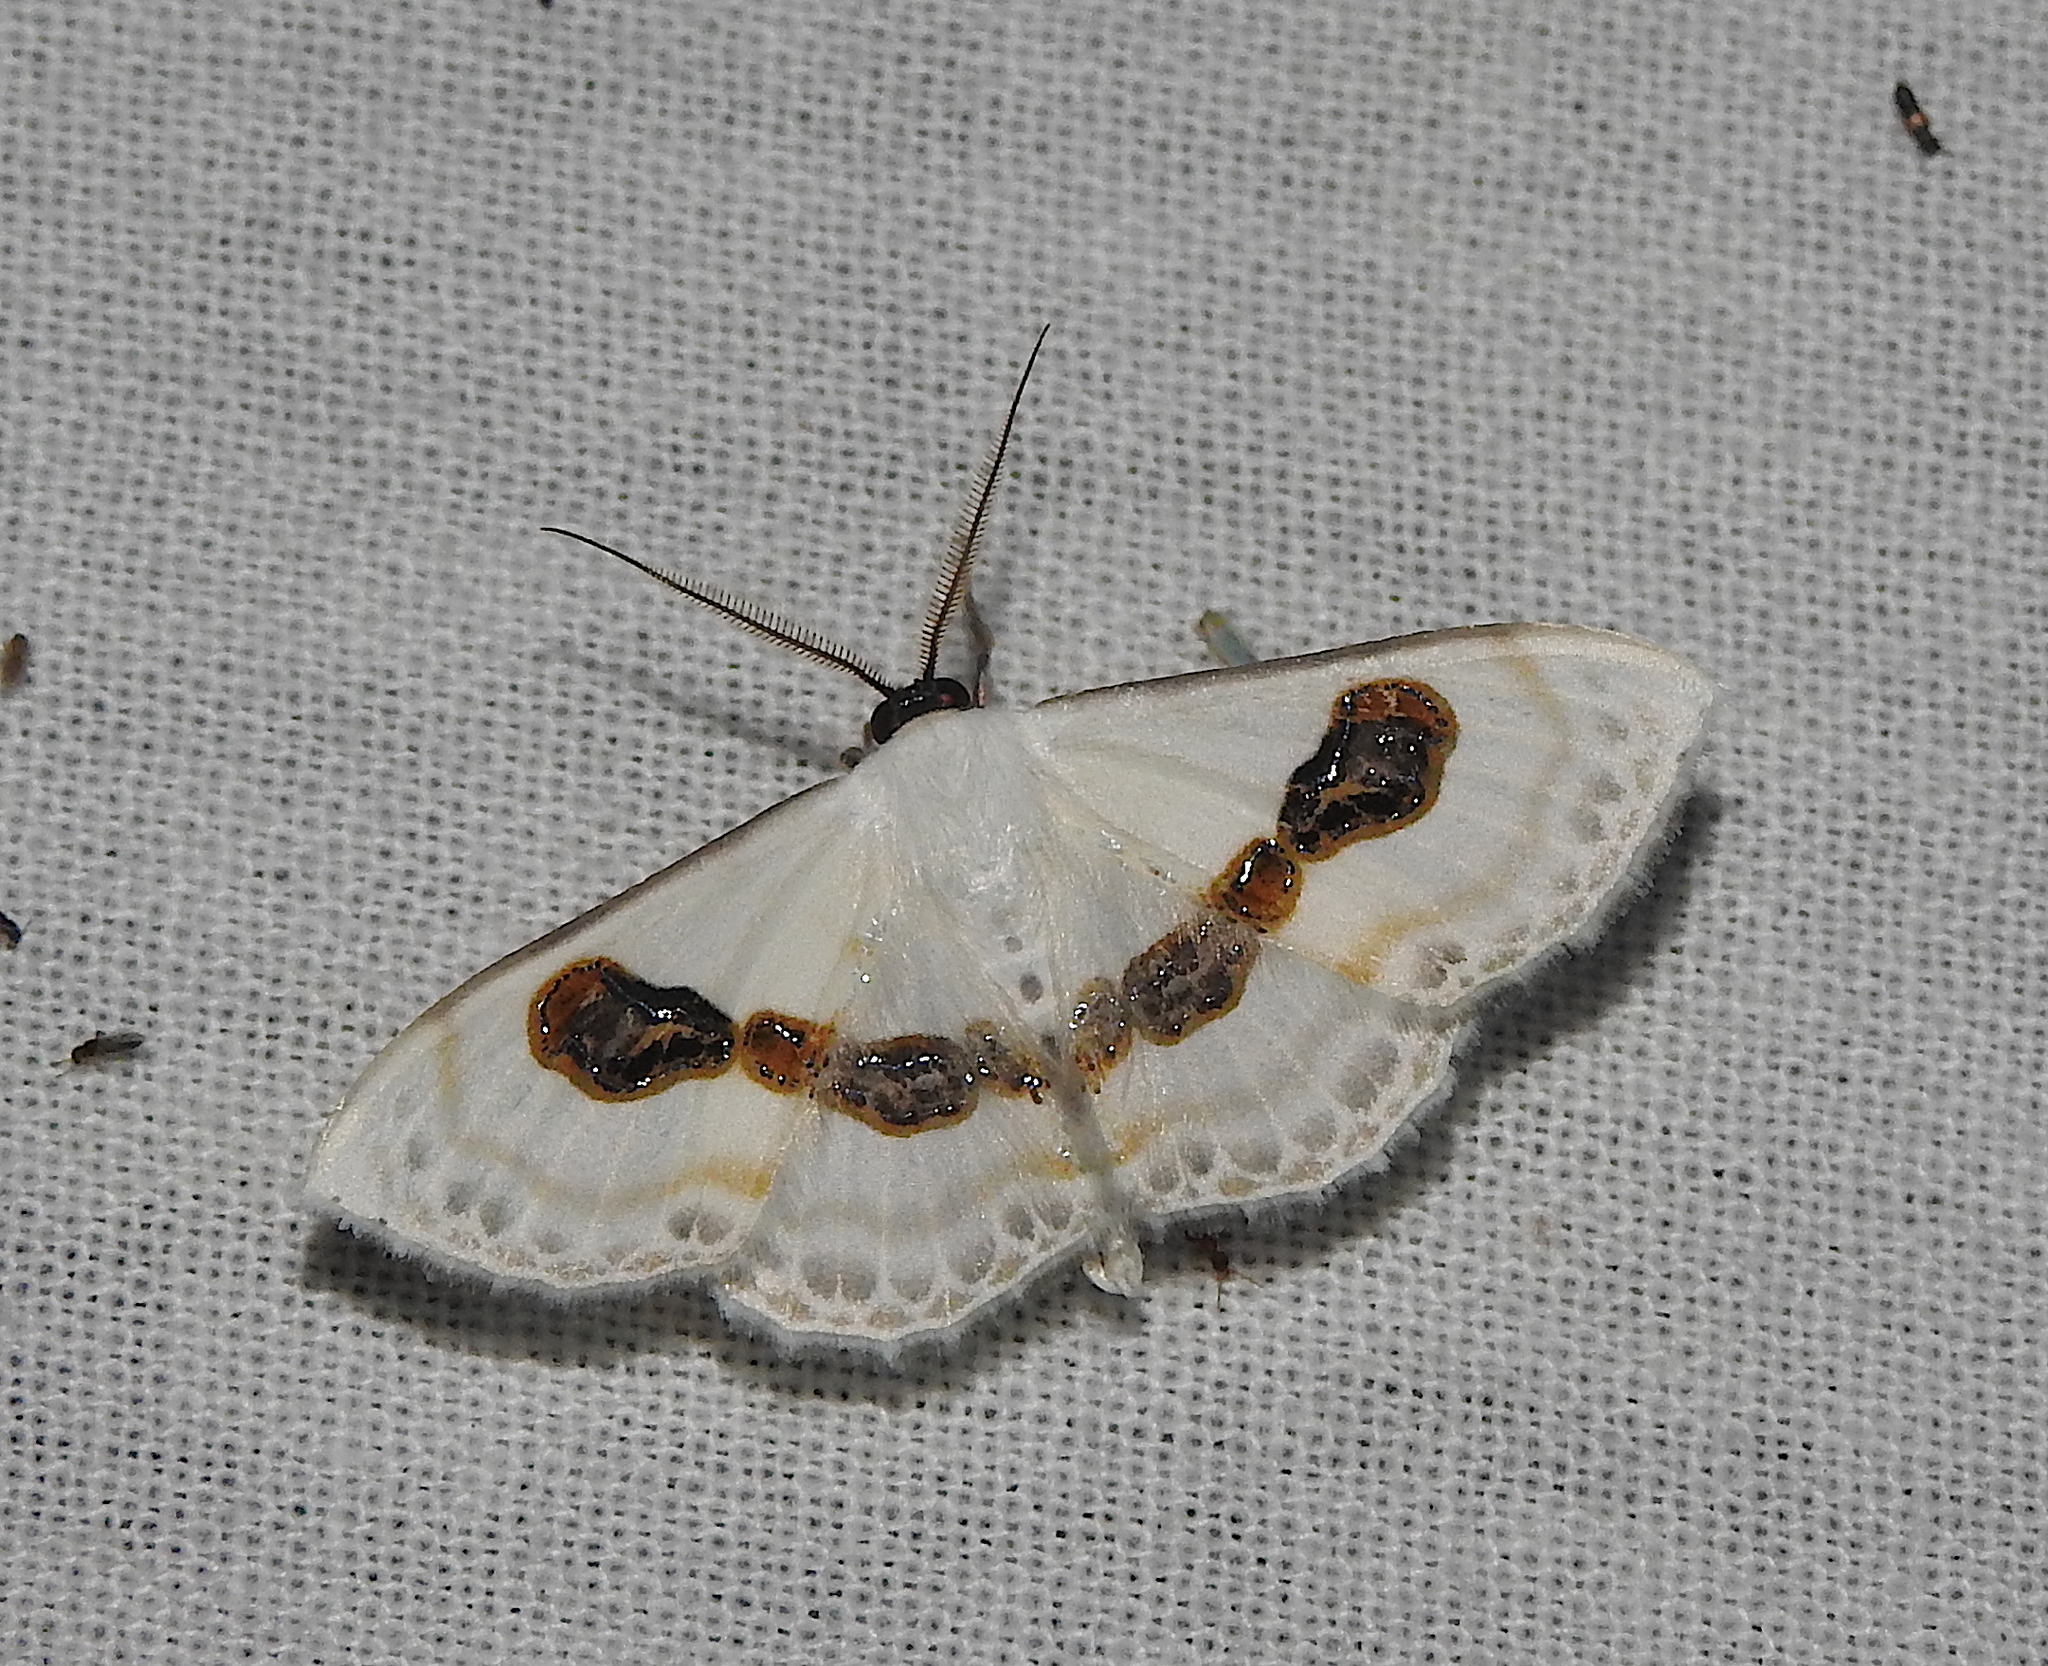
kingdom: Animalia
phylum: Arthropoda
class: Insecta
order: Lepidoptera
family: Geometridae
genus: Problepsis
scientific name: Problepsis vulgaris
